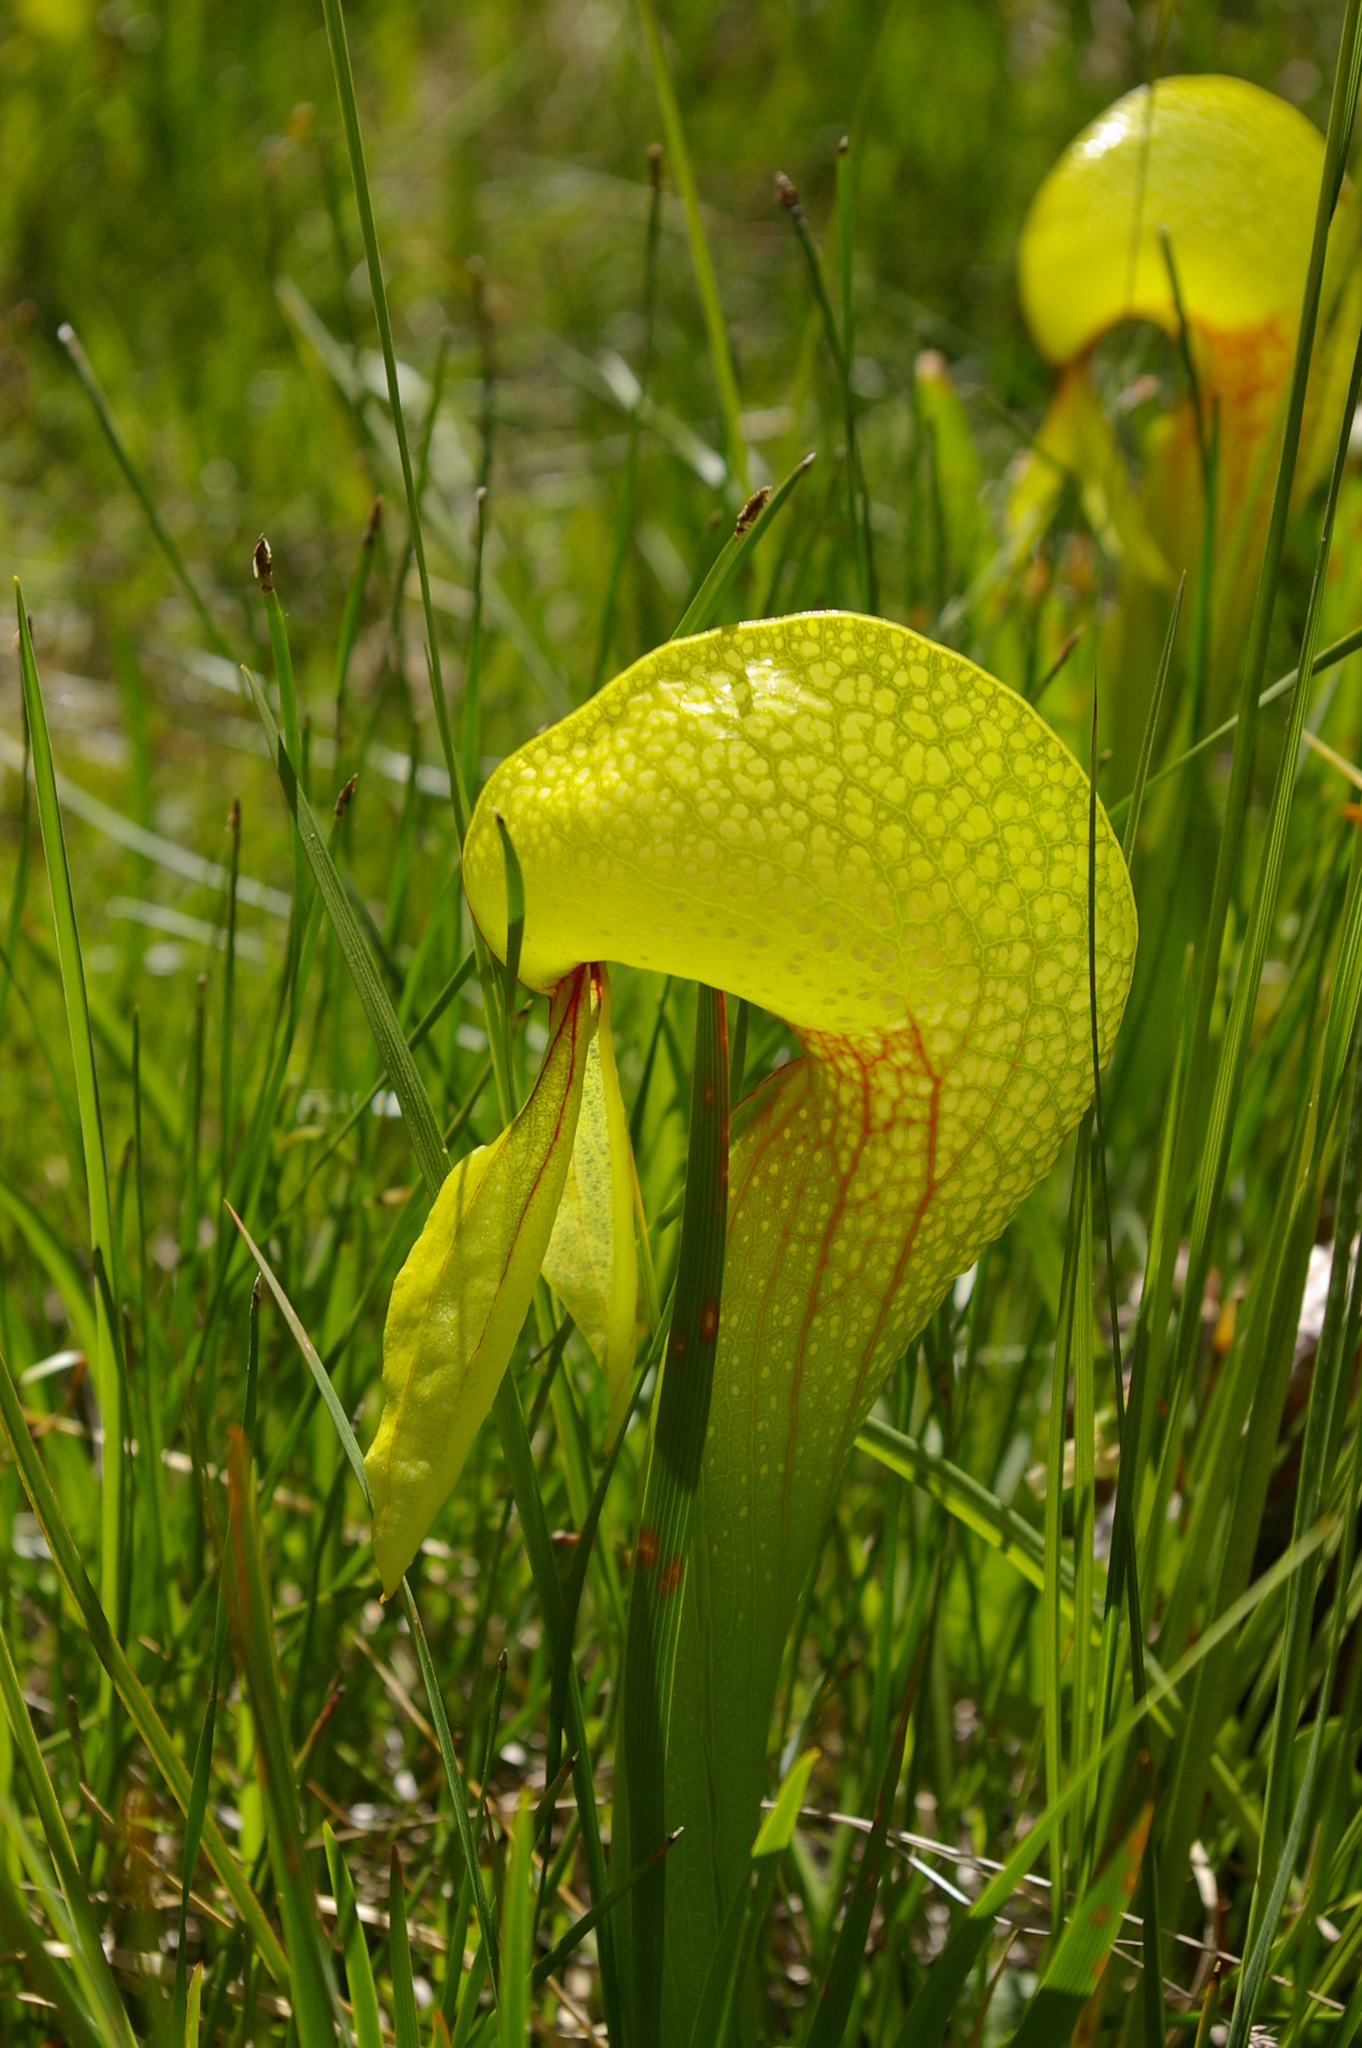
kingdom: Plantae
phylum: Tracheophyta
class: Magnoliopsida
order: Ericales
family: Sarraceniaceae
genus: Darlingtonia
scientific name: Darlingtonia californica
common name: California pitcher plant
